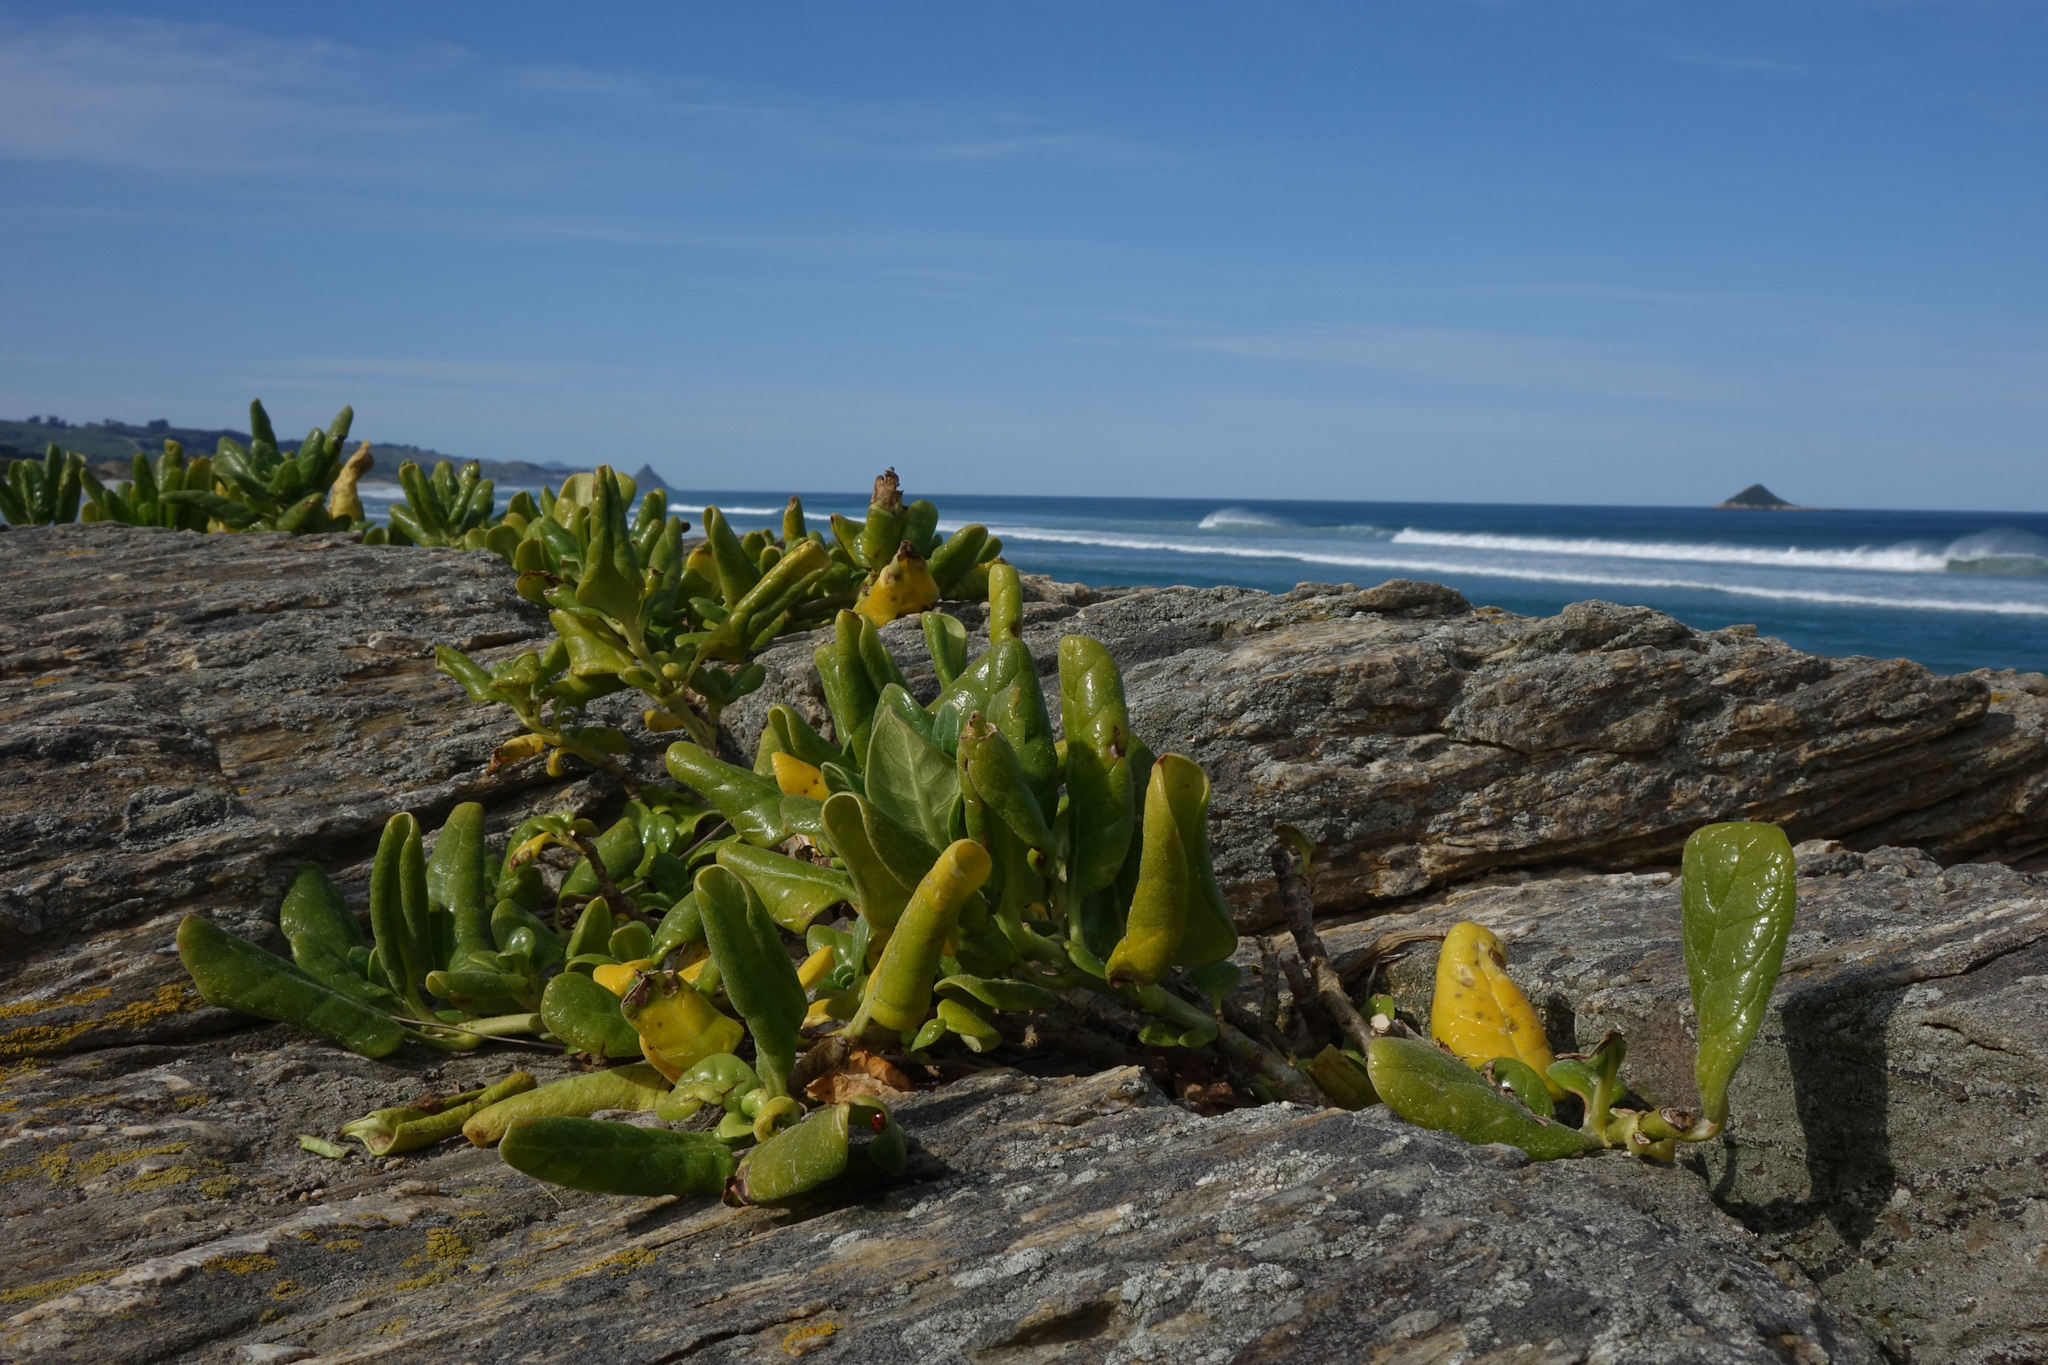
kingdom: Plantae
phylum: Tracheophyta
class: Magnoliopsida
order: Gentianales
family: Rubiaceae
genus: Coprosma
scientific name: Coprosma repens
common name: Tree bedstraw
